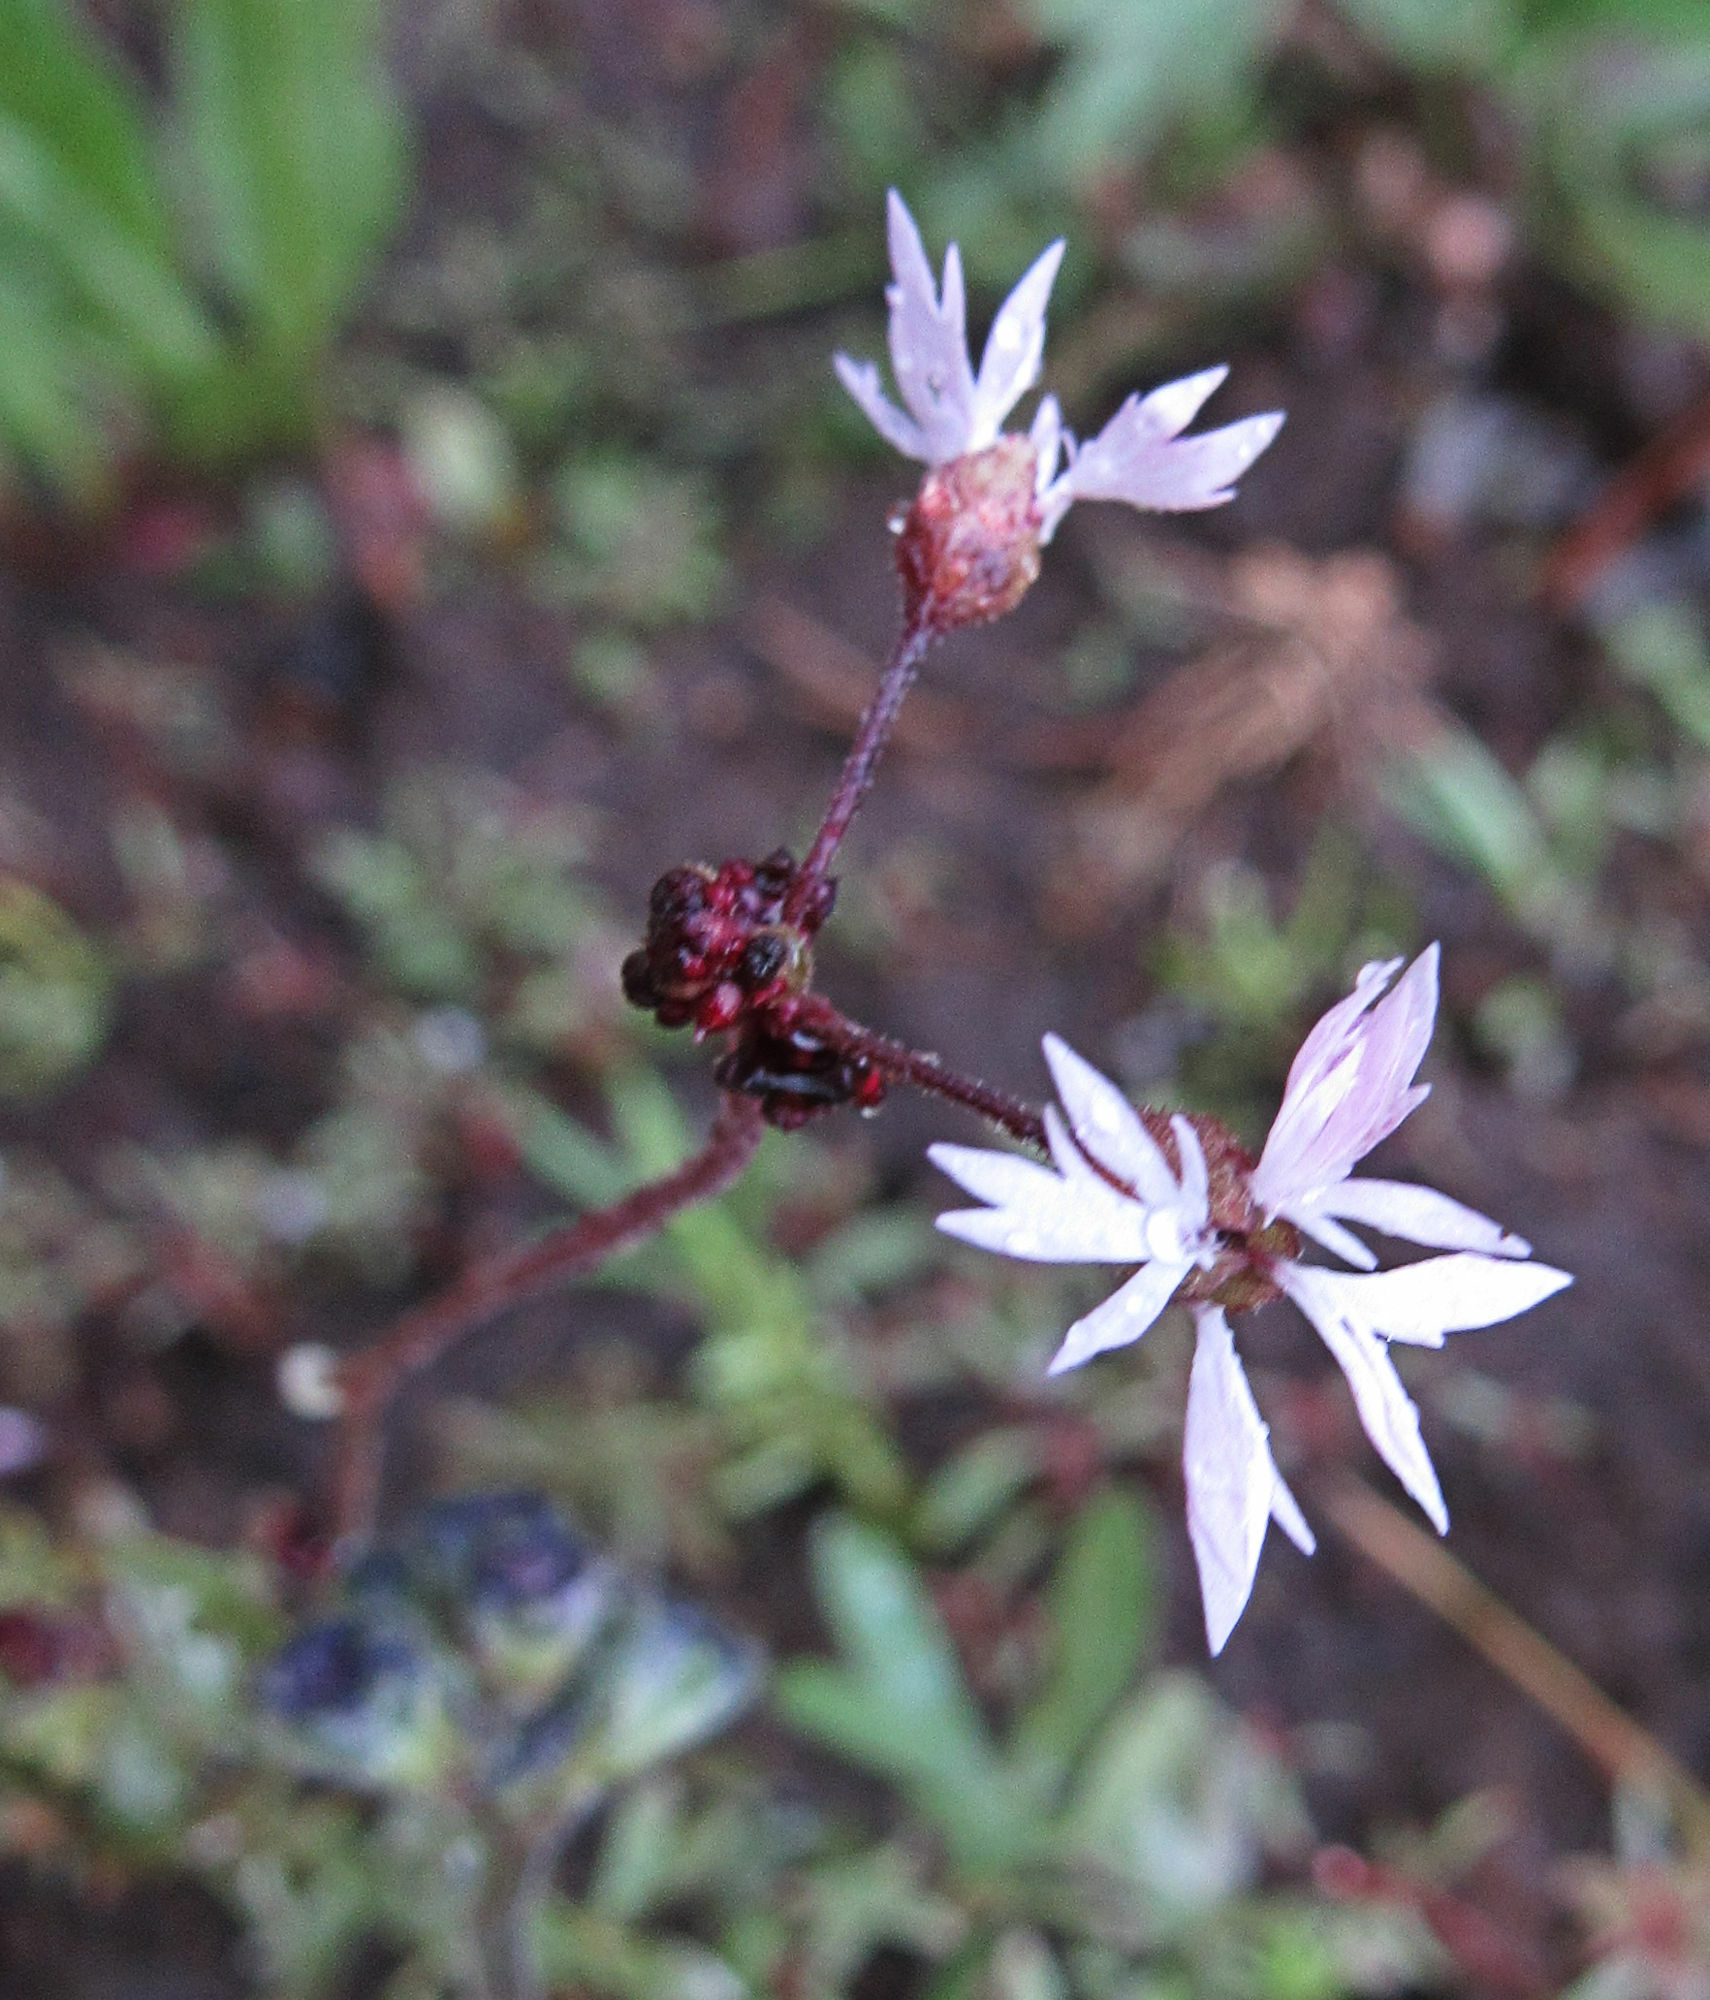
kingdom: Plantae
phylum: Tracheophyta
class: Magnoliopsida
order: Saxifragales
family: Saxifragaceae
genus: Lithophragma
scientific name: Lithophragma glabrum
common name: Bulbous prairie-star
